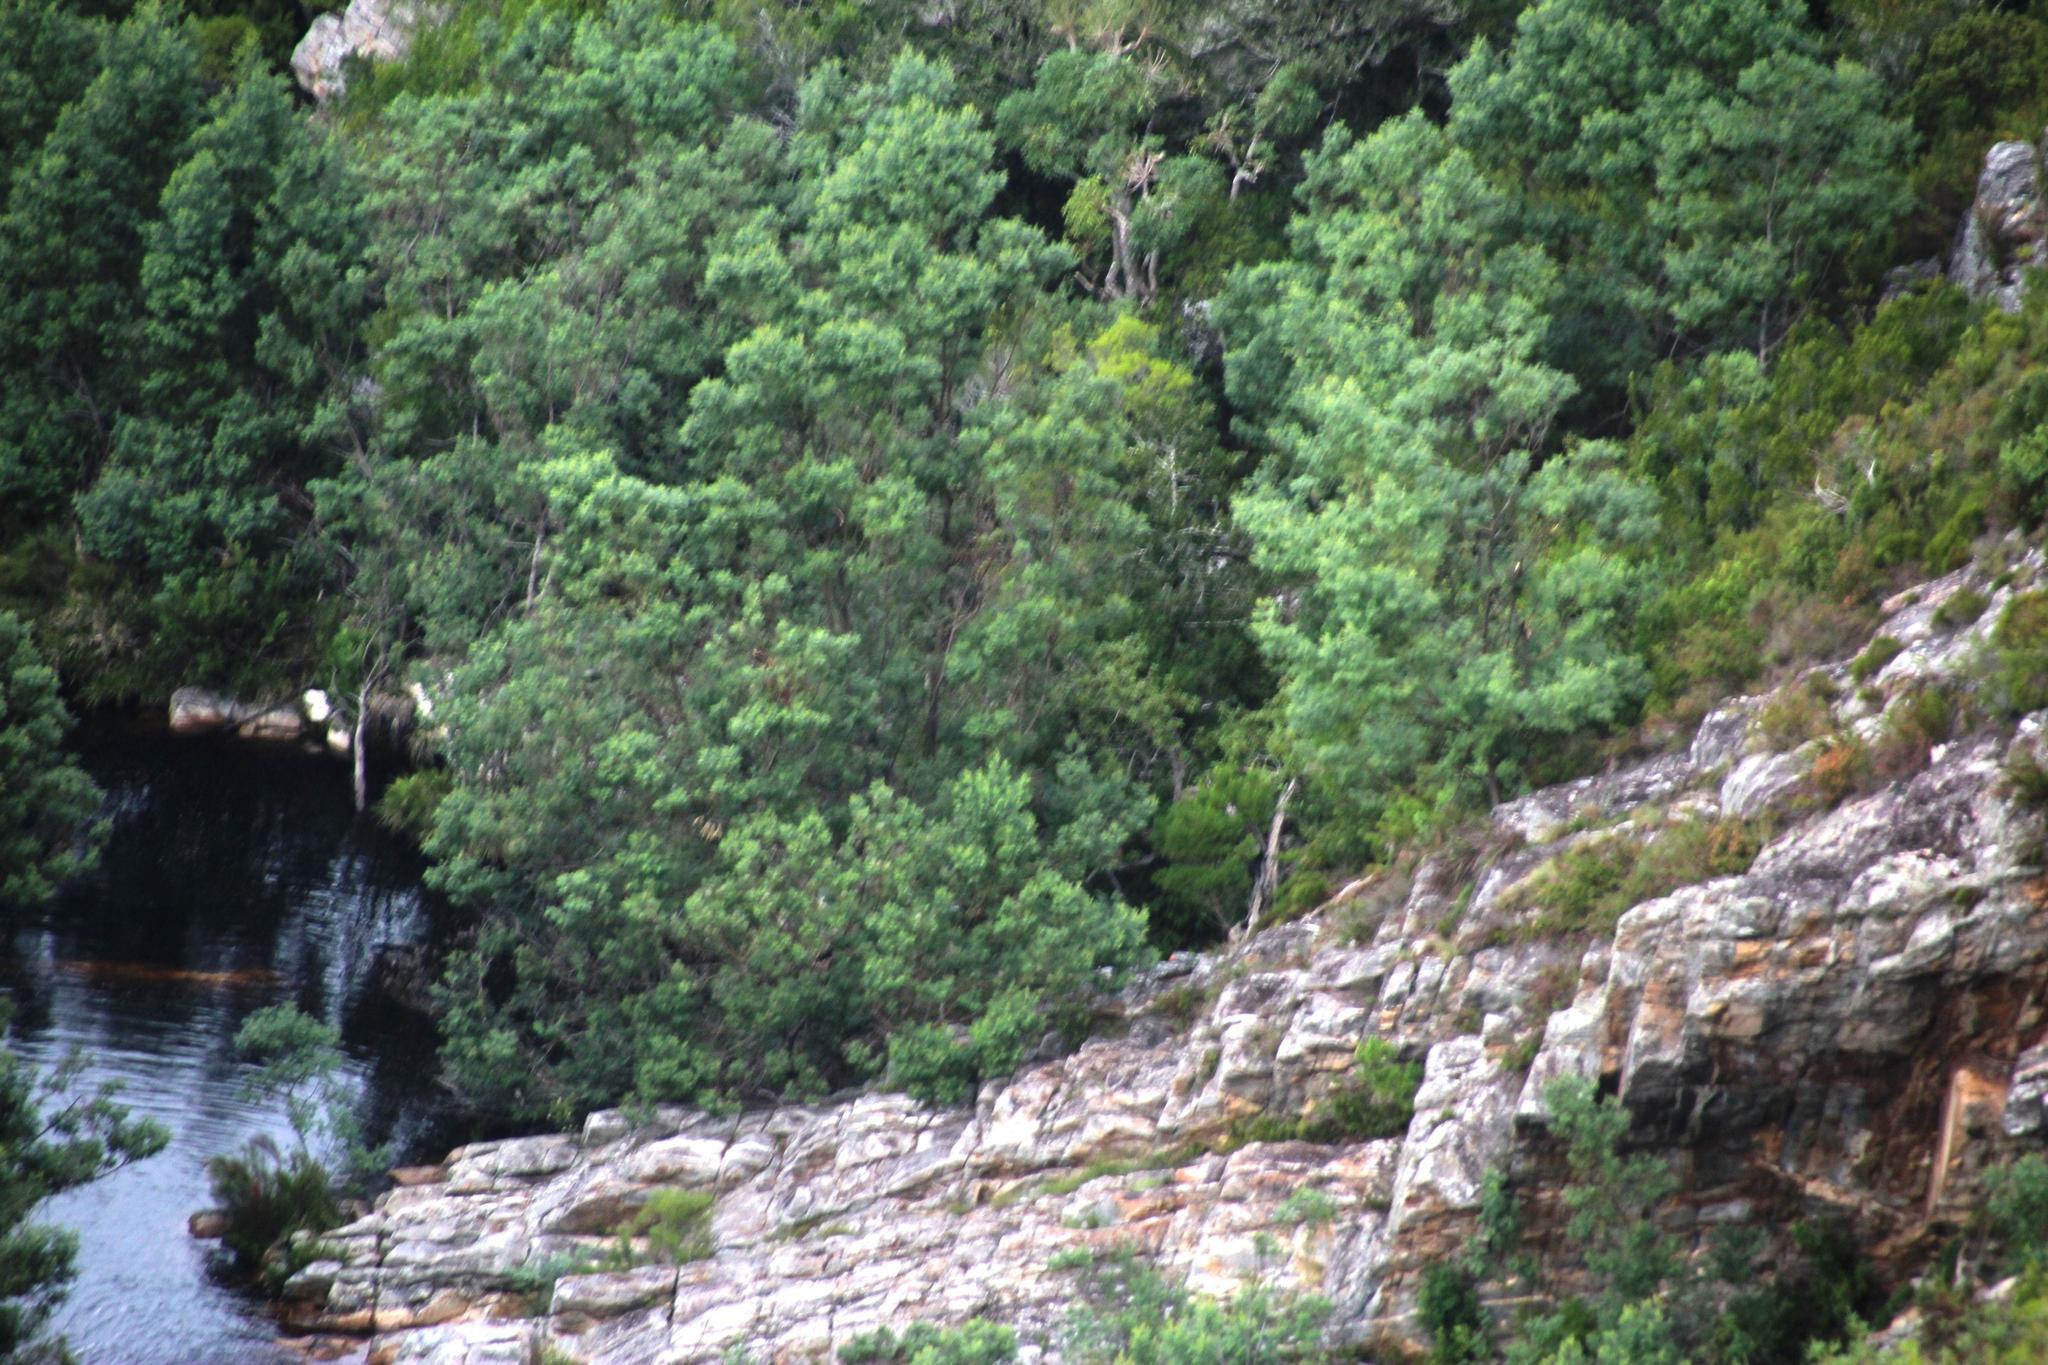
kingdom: Plantae
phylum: Tracheophyta
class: Magnoliopsida
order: Fabales
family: Fabaceae
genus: Acacia
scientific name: Acacia mearnsii
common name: Black wattle
